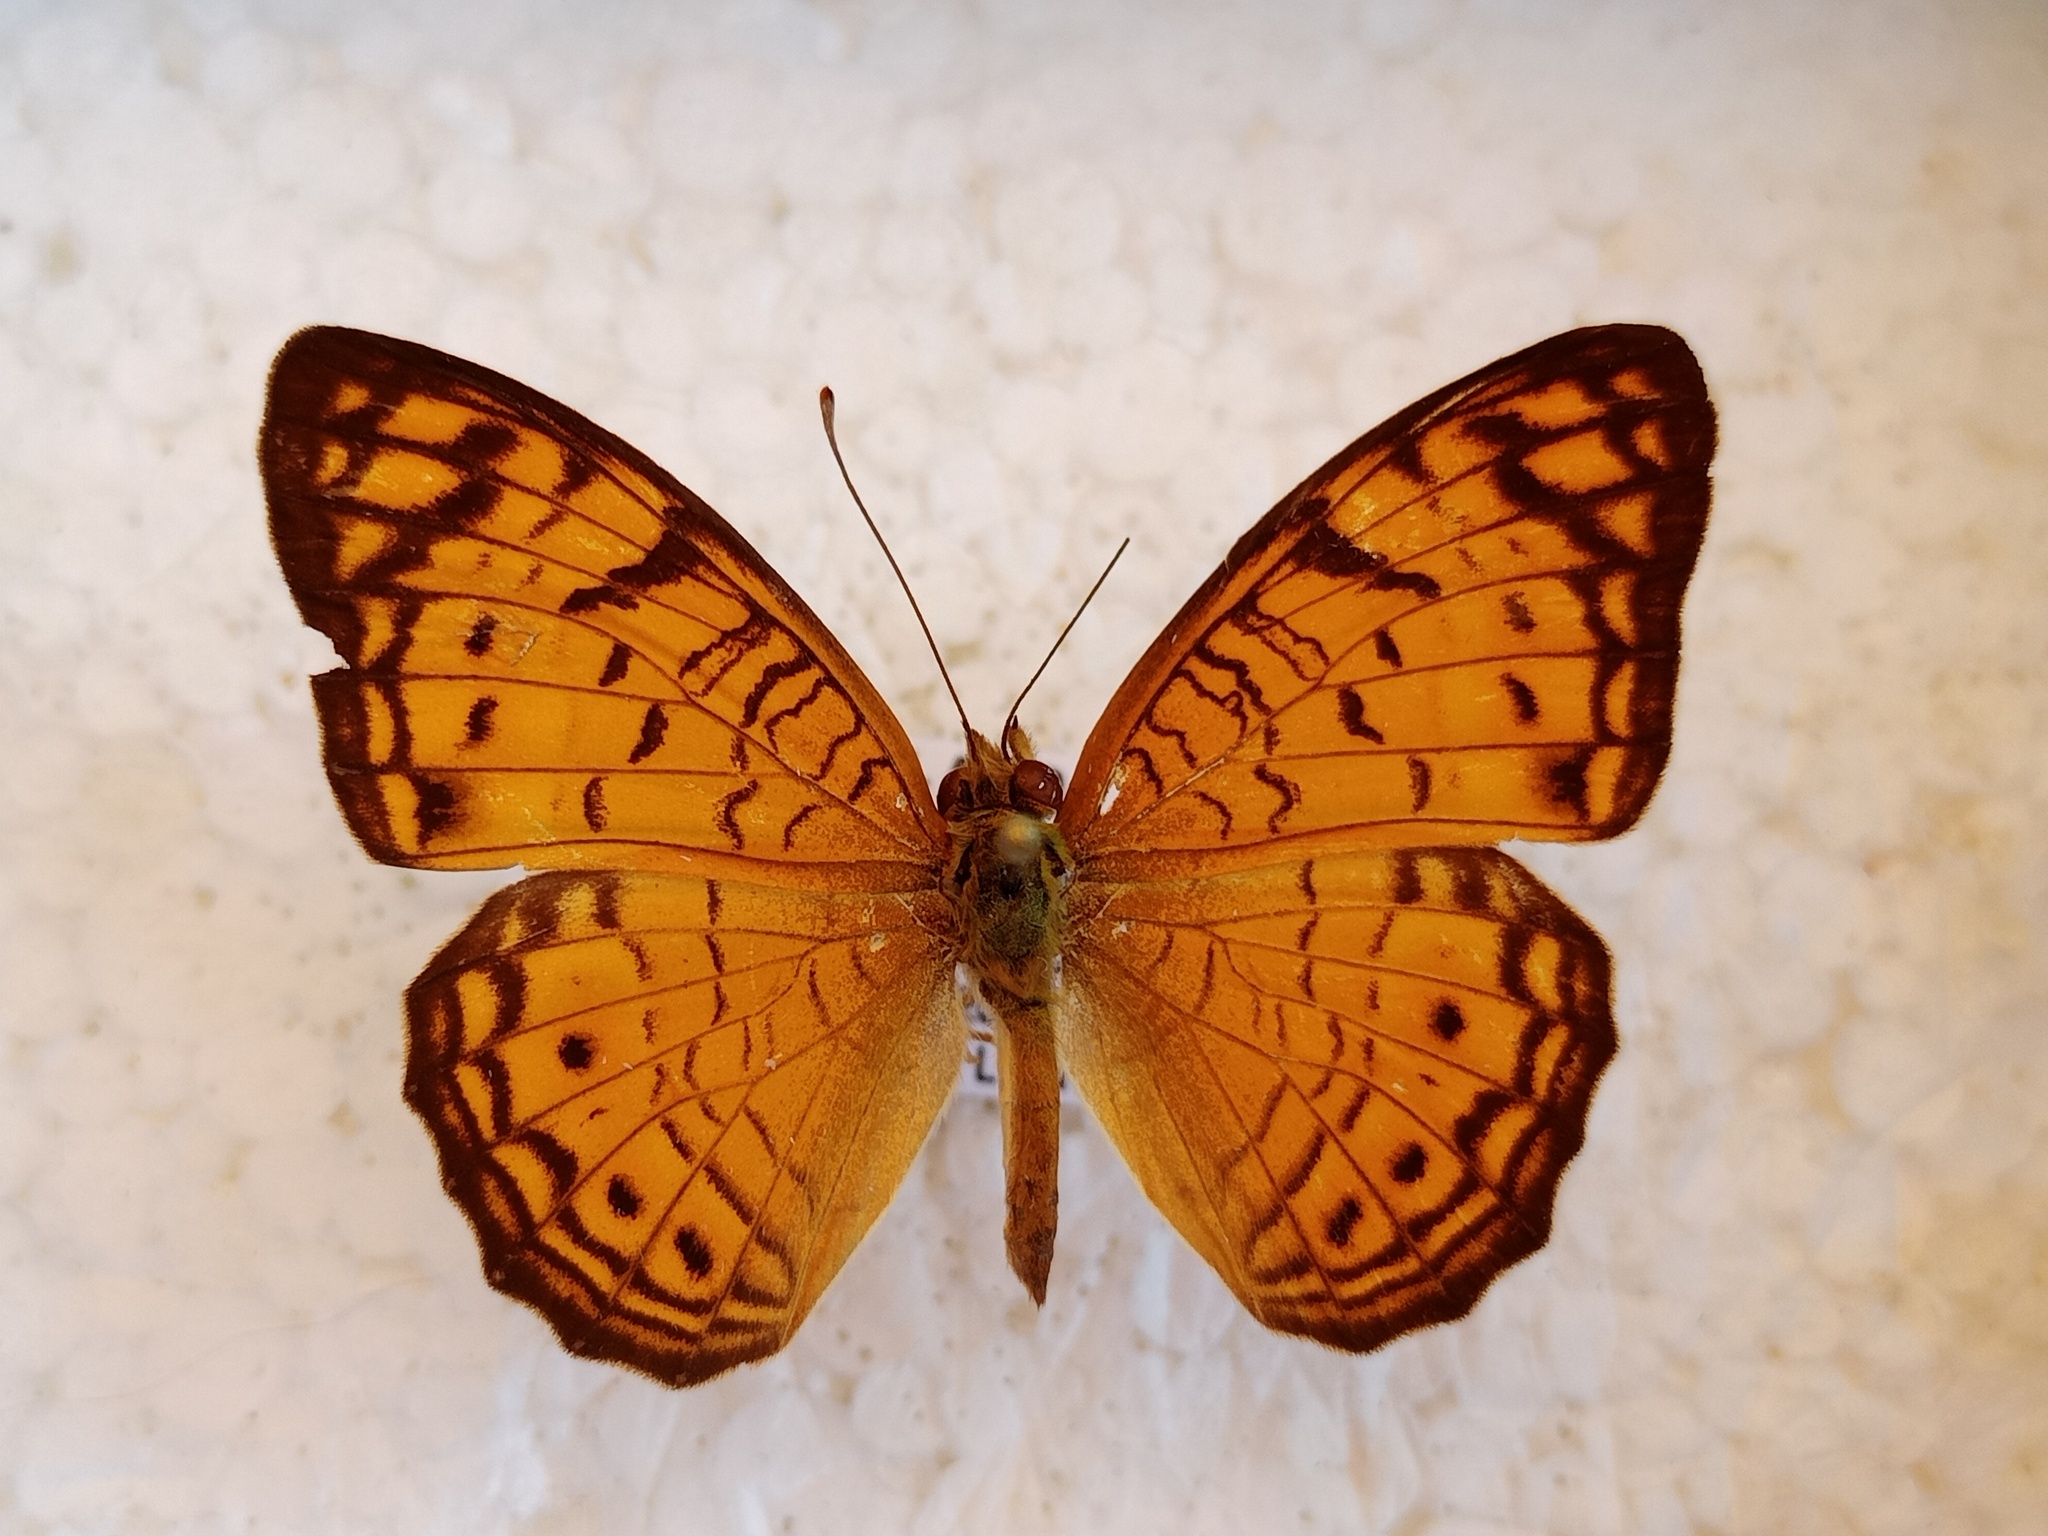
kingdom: Animalia
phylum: Arthropoda
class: Insecta
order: Lepidoptera
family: Nymphalidae
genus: Phalanta
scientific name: Phalanta alcippe
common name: Small leopard
